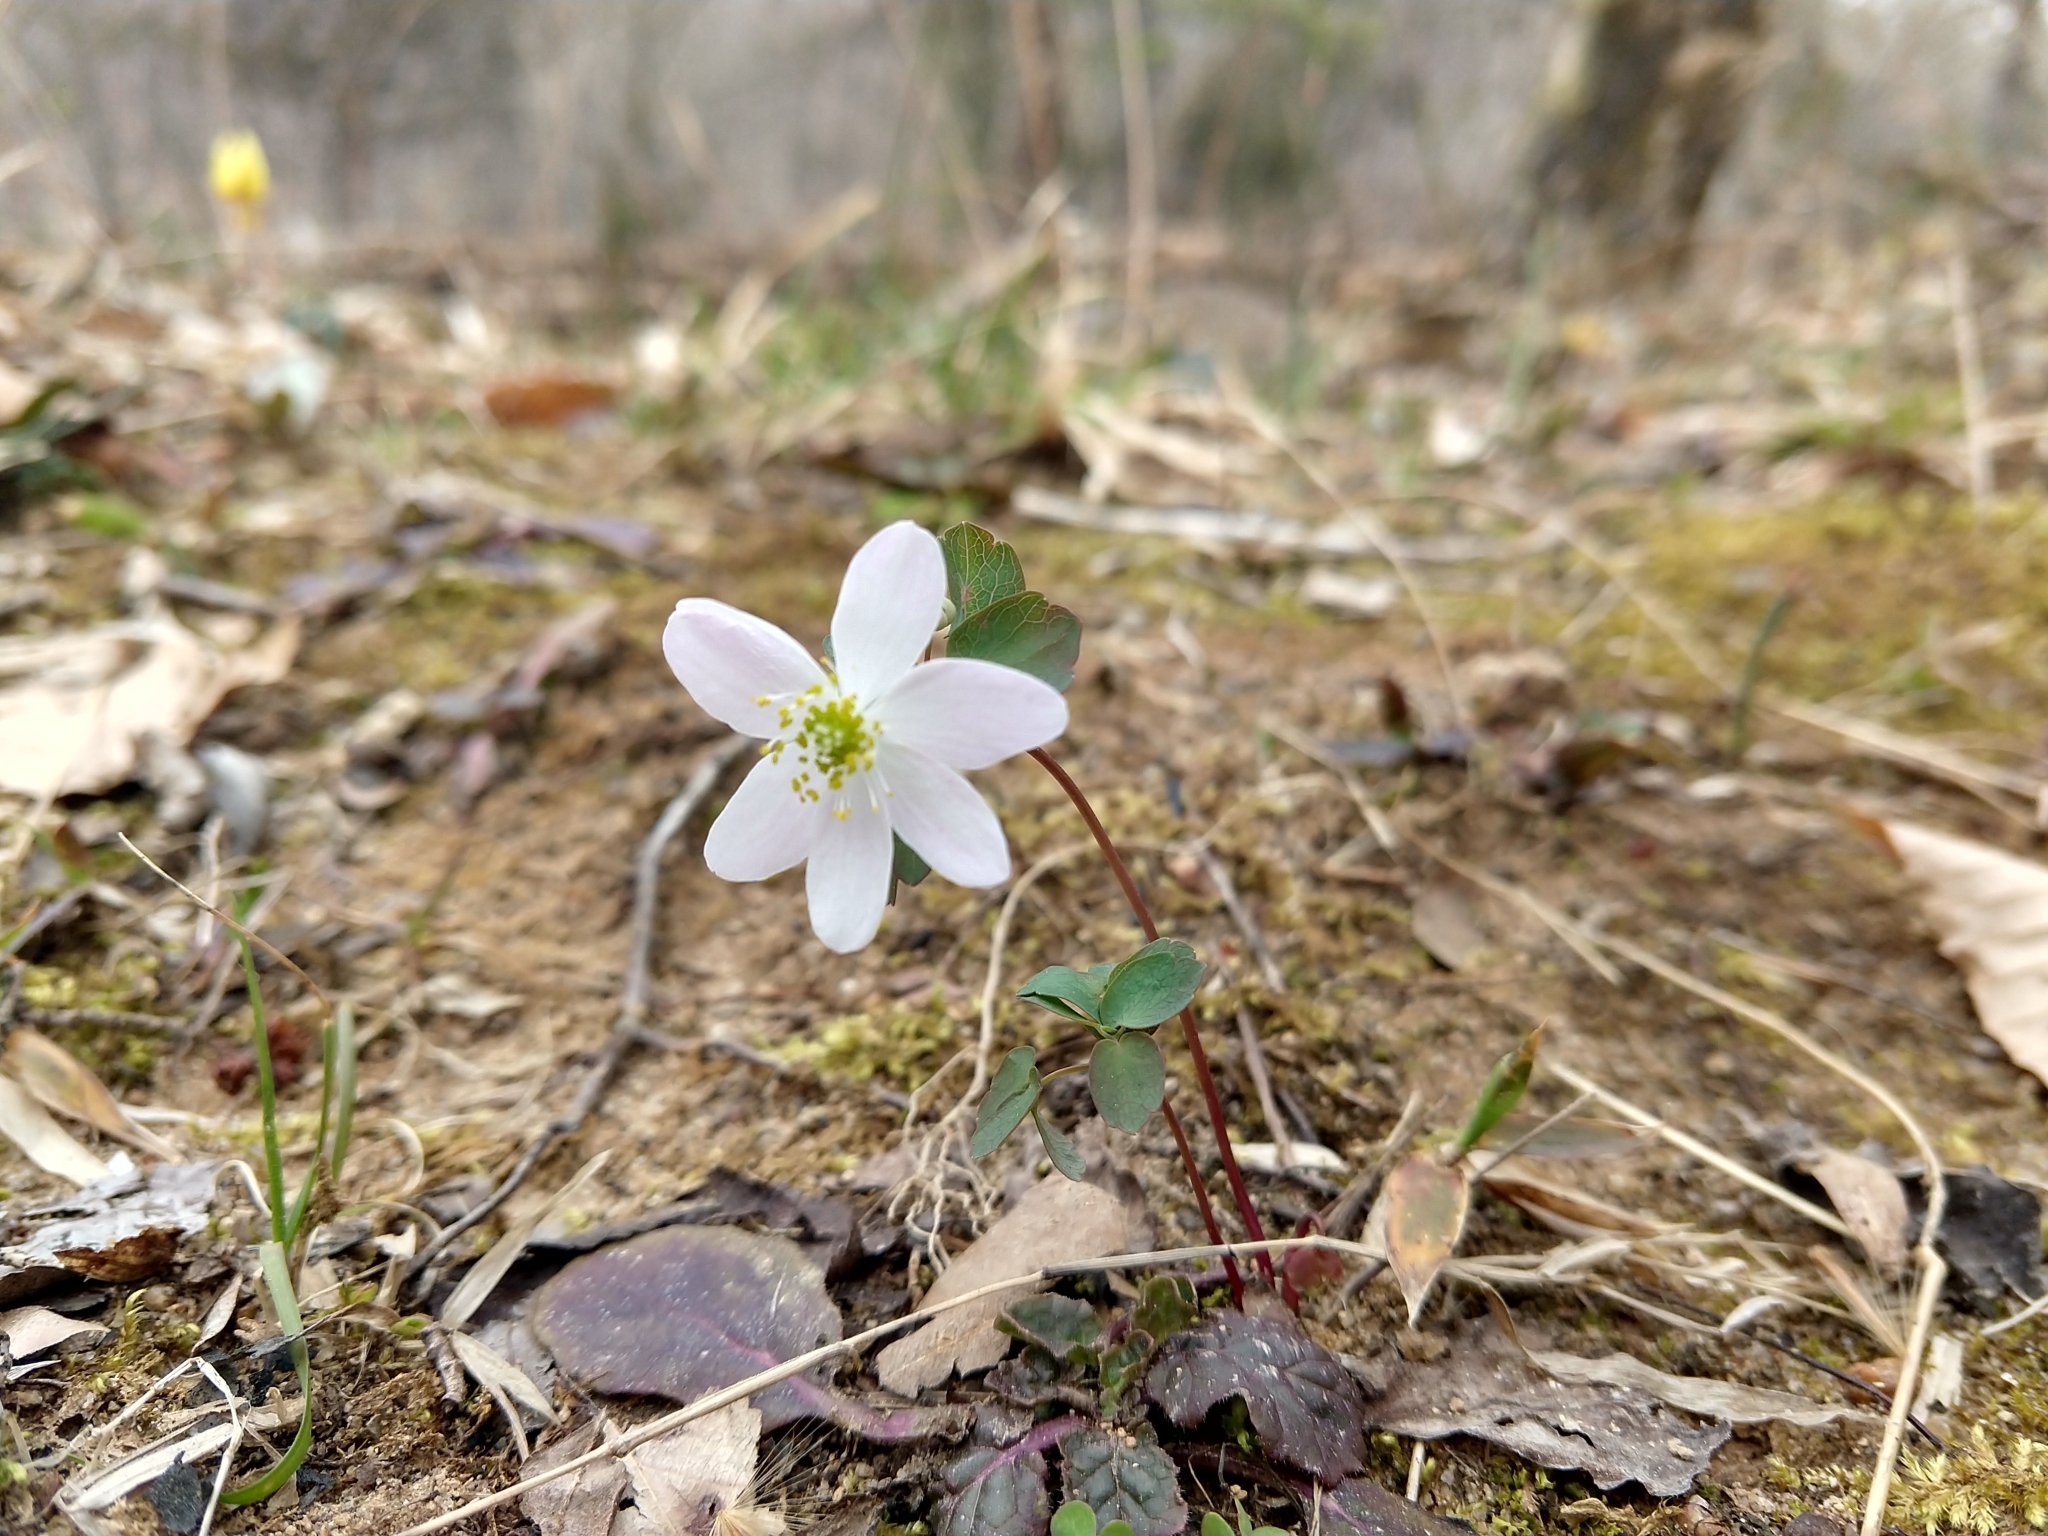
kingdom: Plantae
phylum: Tracheophyta
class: Magnoliopsida
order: Ranunculales
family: Ranunculaceae
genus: Thalictrum
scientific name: Thalictrum thalictroides
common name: Rue-anemone
